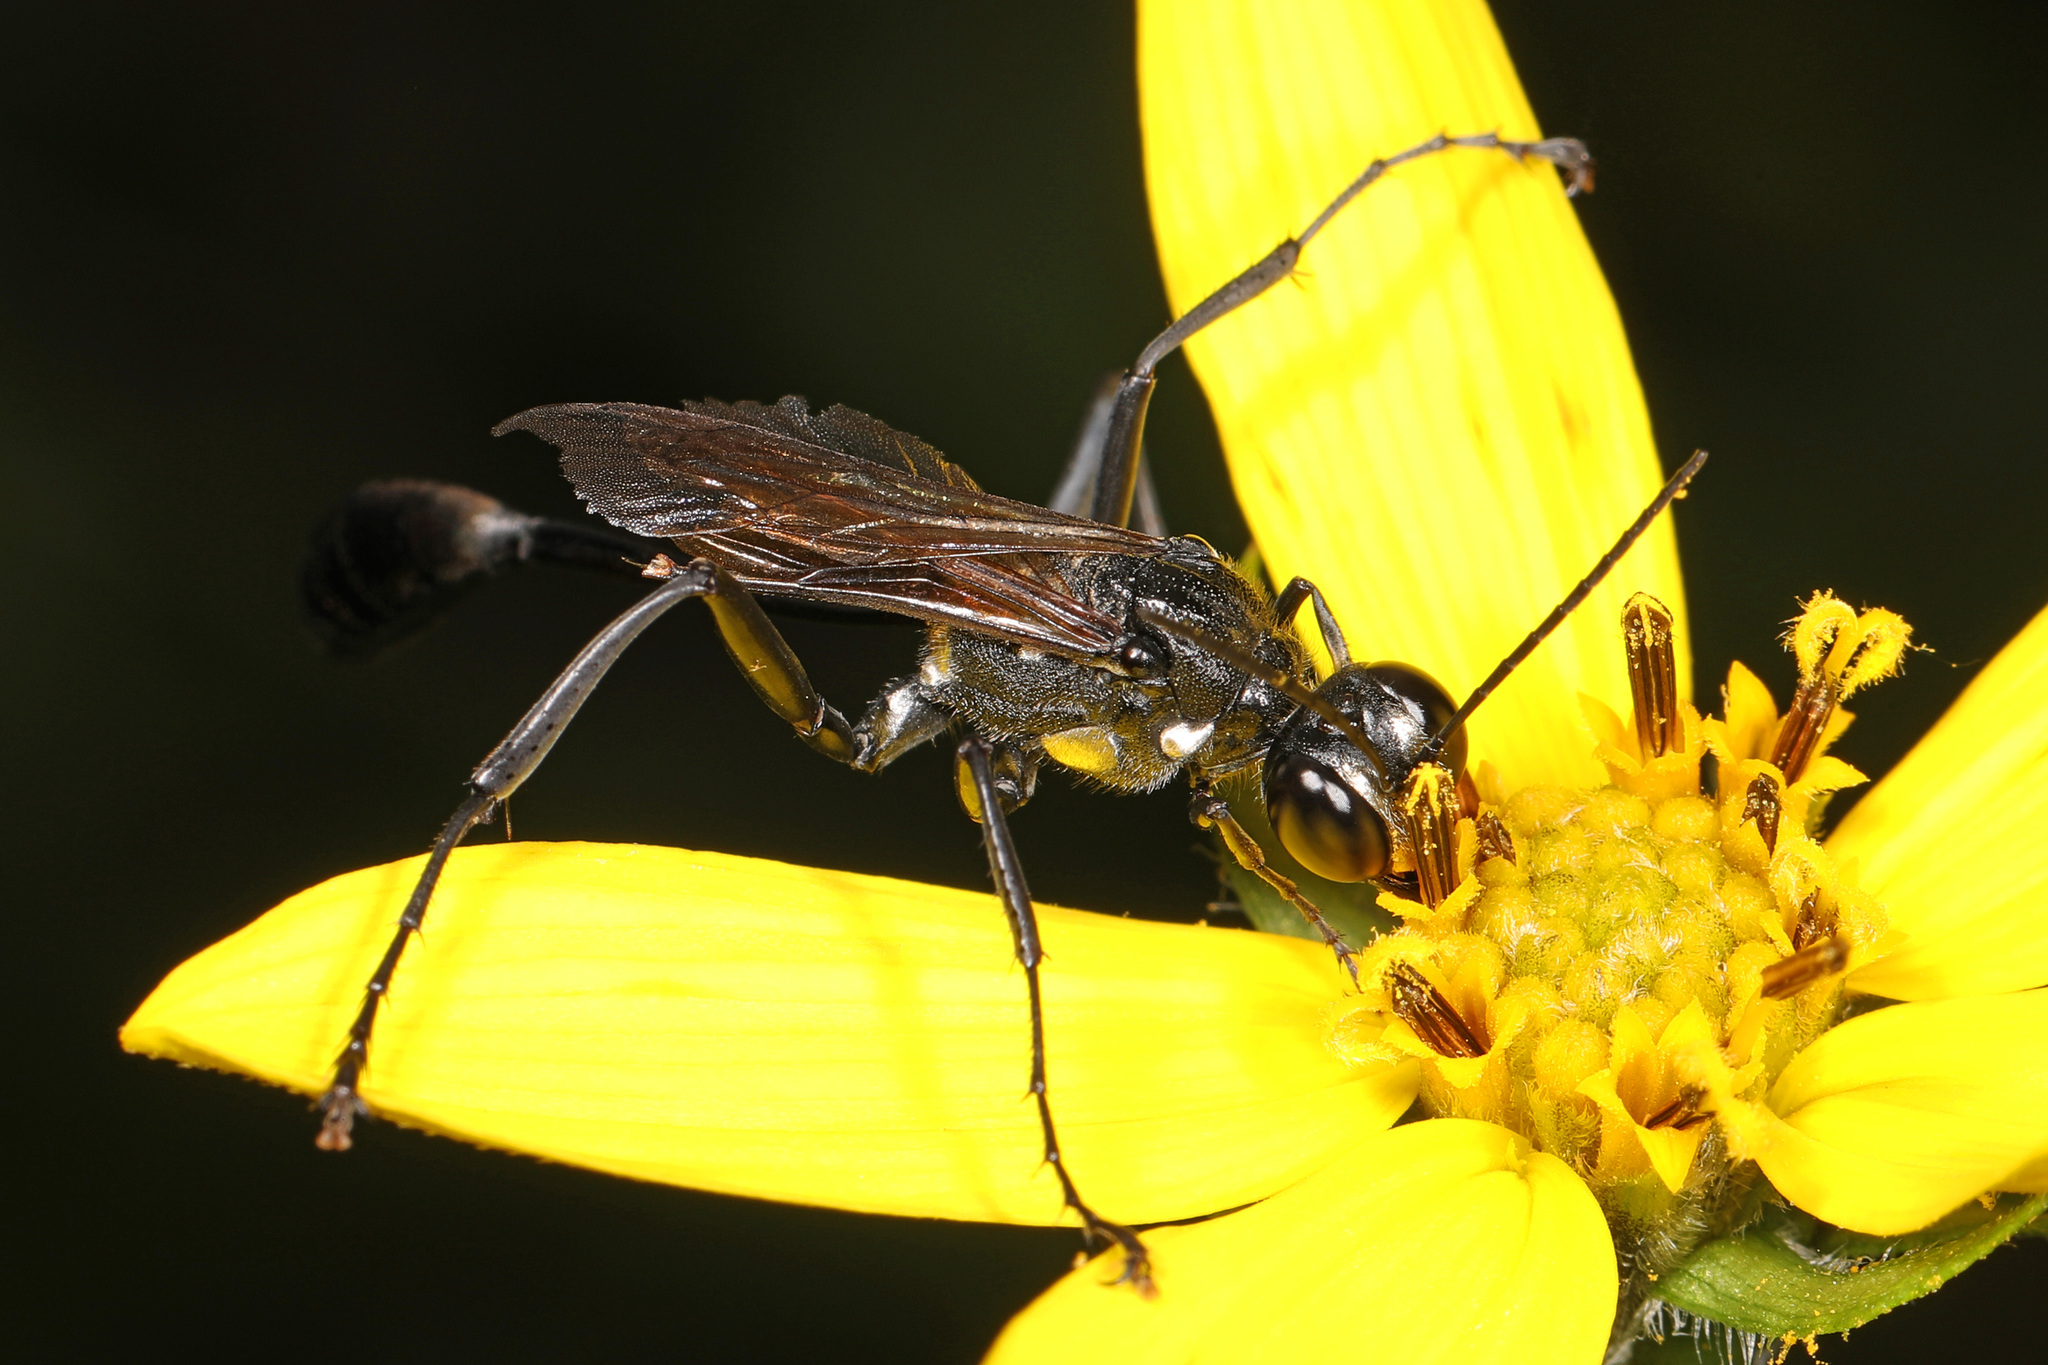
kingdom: Animalia
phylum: Arthropoda
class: Insecta
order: Hymenoptera
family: Sphecidae
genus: Eremnophila
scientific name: Eremnophila aureonotata
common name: Gold-marked thread-waisted wasp
